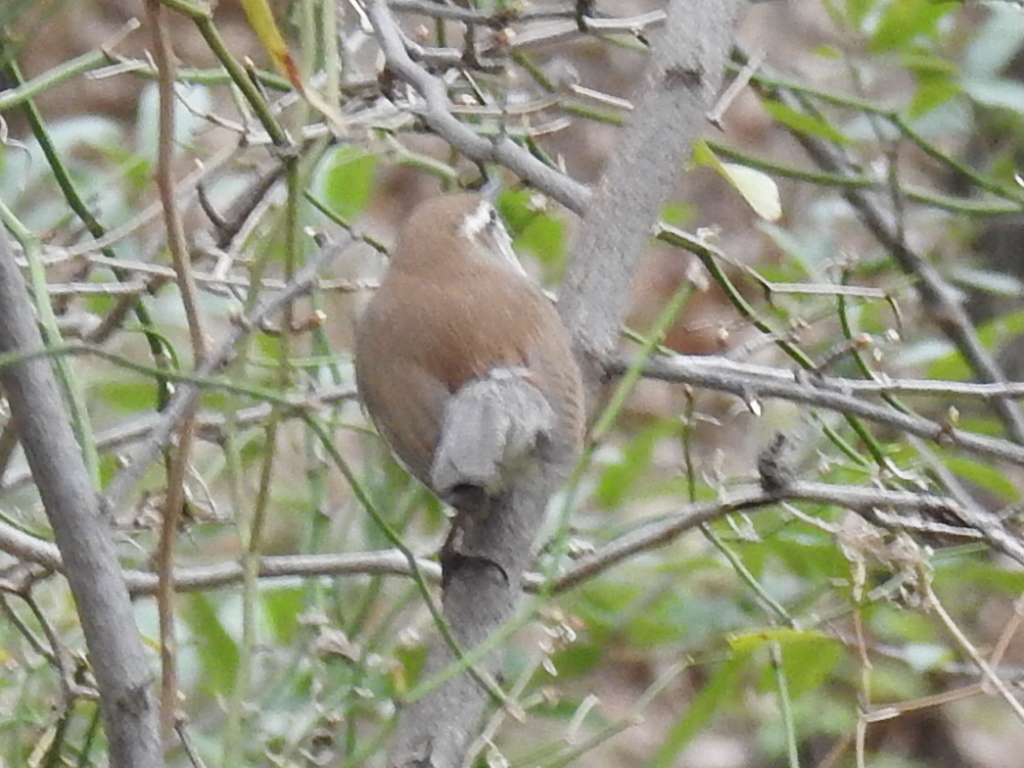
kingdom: Animalia
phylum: Chordata
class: Aves
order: Passeriformes
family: Troglodytidae
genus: Thryomanes
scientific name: Thryomanes bewickii
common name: Bewick's wren
